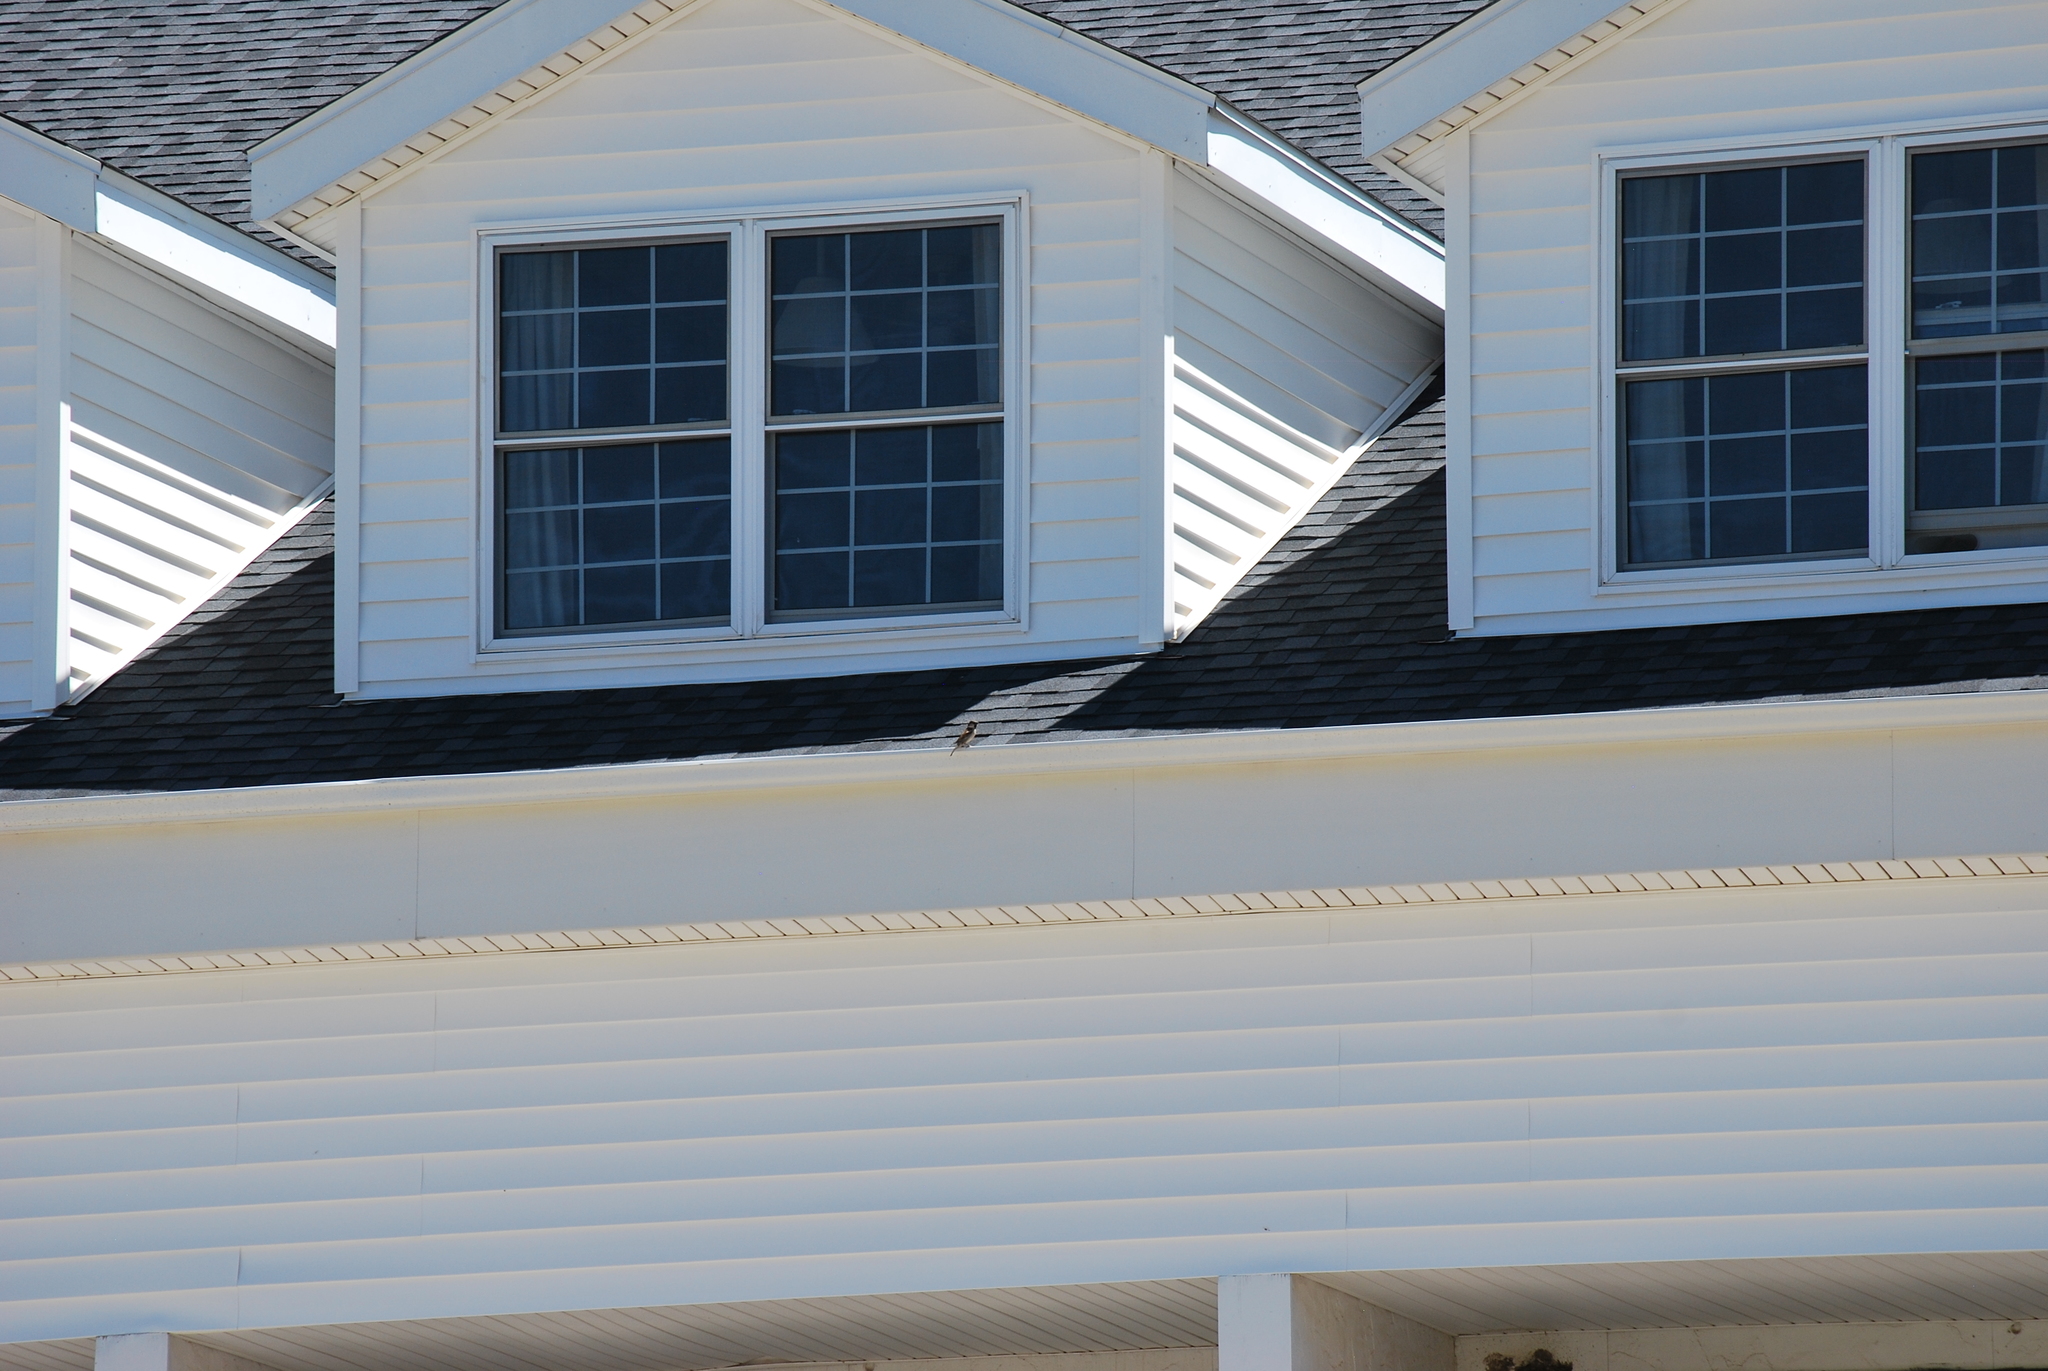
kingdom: Animalia
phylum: Chordata
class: Aves
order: Passeriformes
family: Passeridae
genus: Passer
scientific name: Passer domesticus
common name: House sparrow
